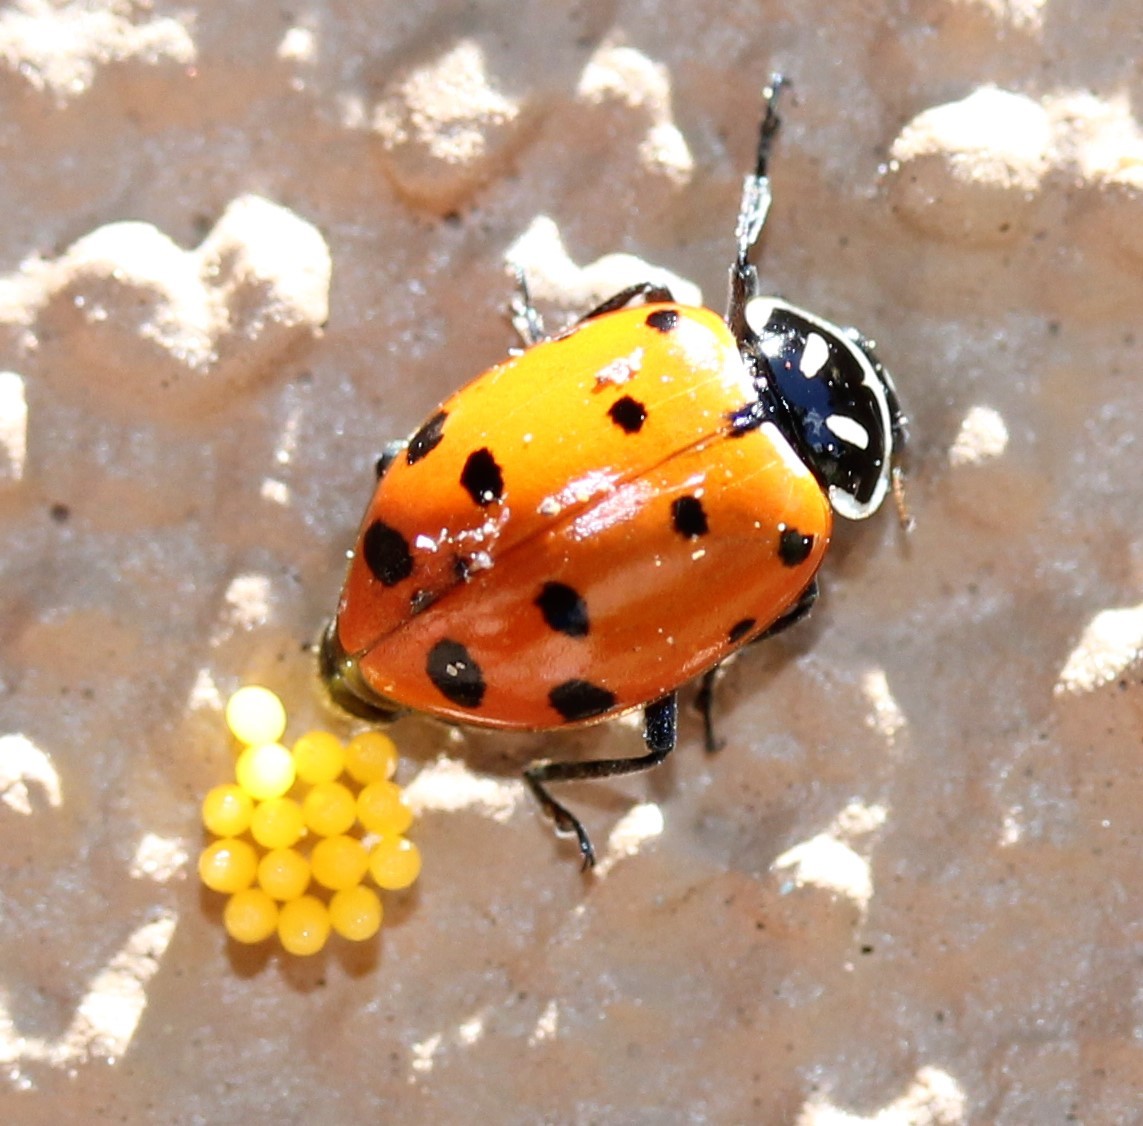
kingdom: Animalia
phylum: Arthropoda
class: Insecta
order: Coleoptera
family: Coccinellidae
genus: Hippodamia
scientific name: Hippodamia convergens
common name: Convergent lady beetle
